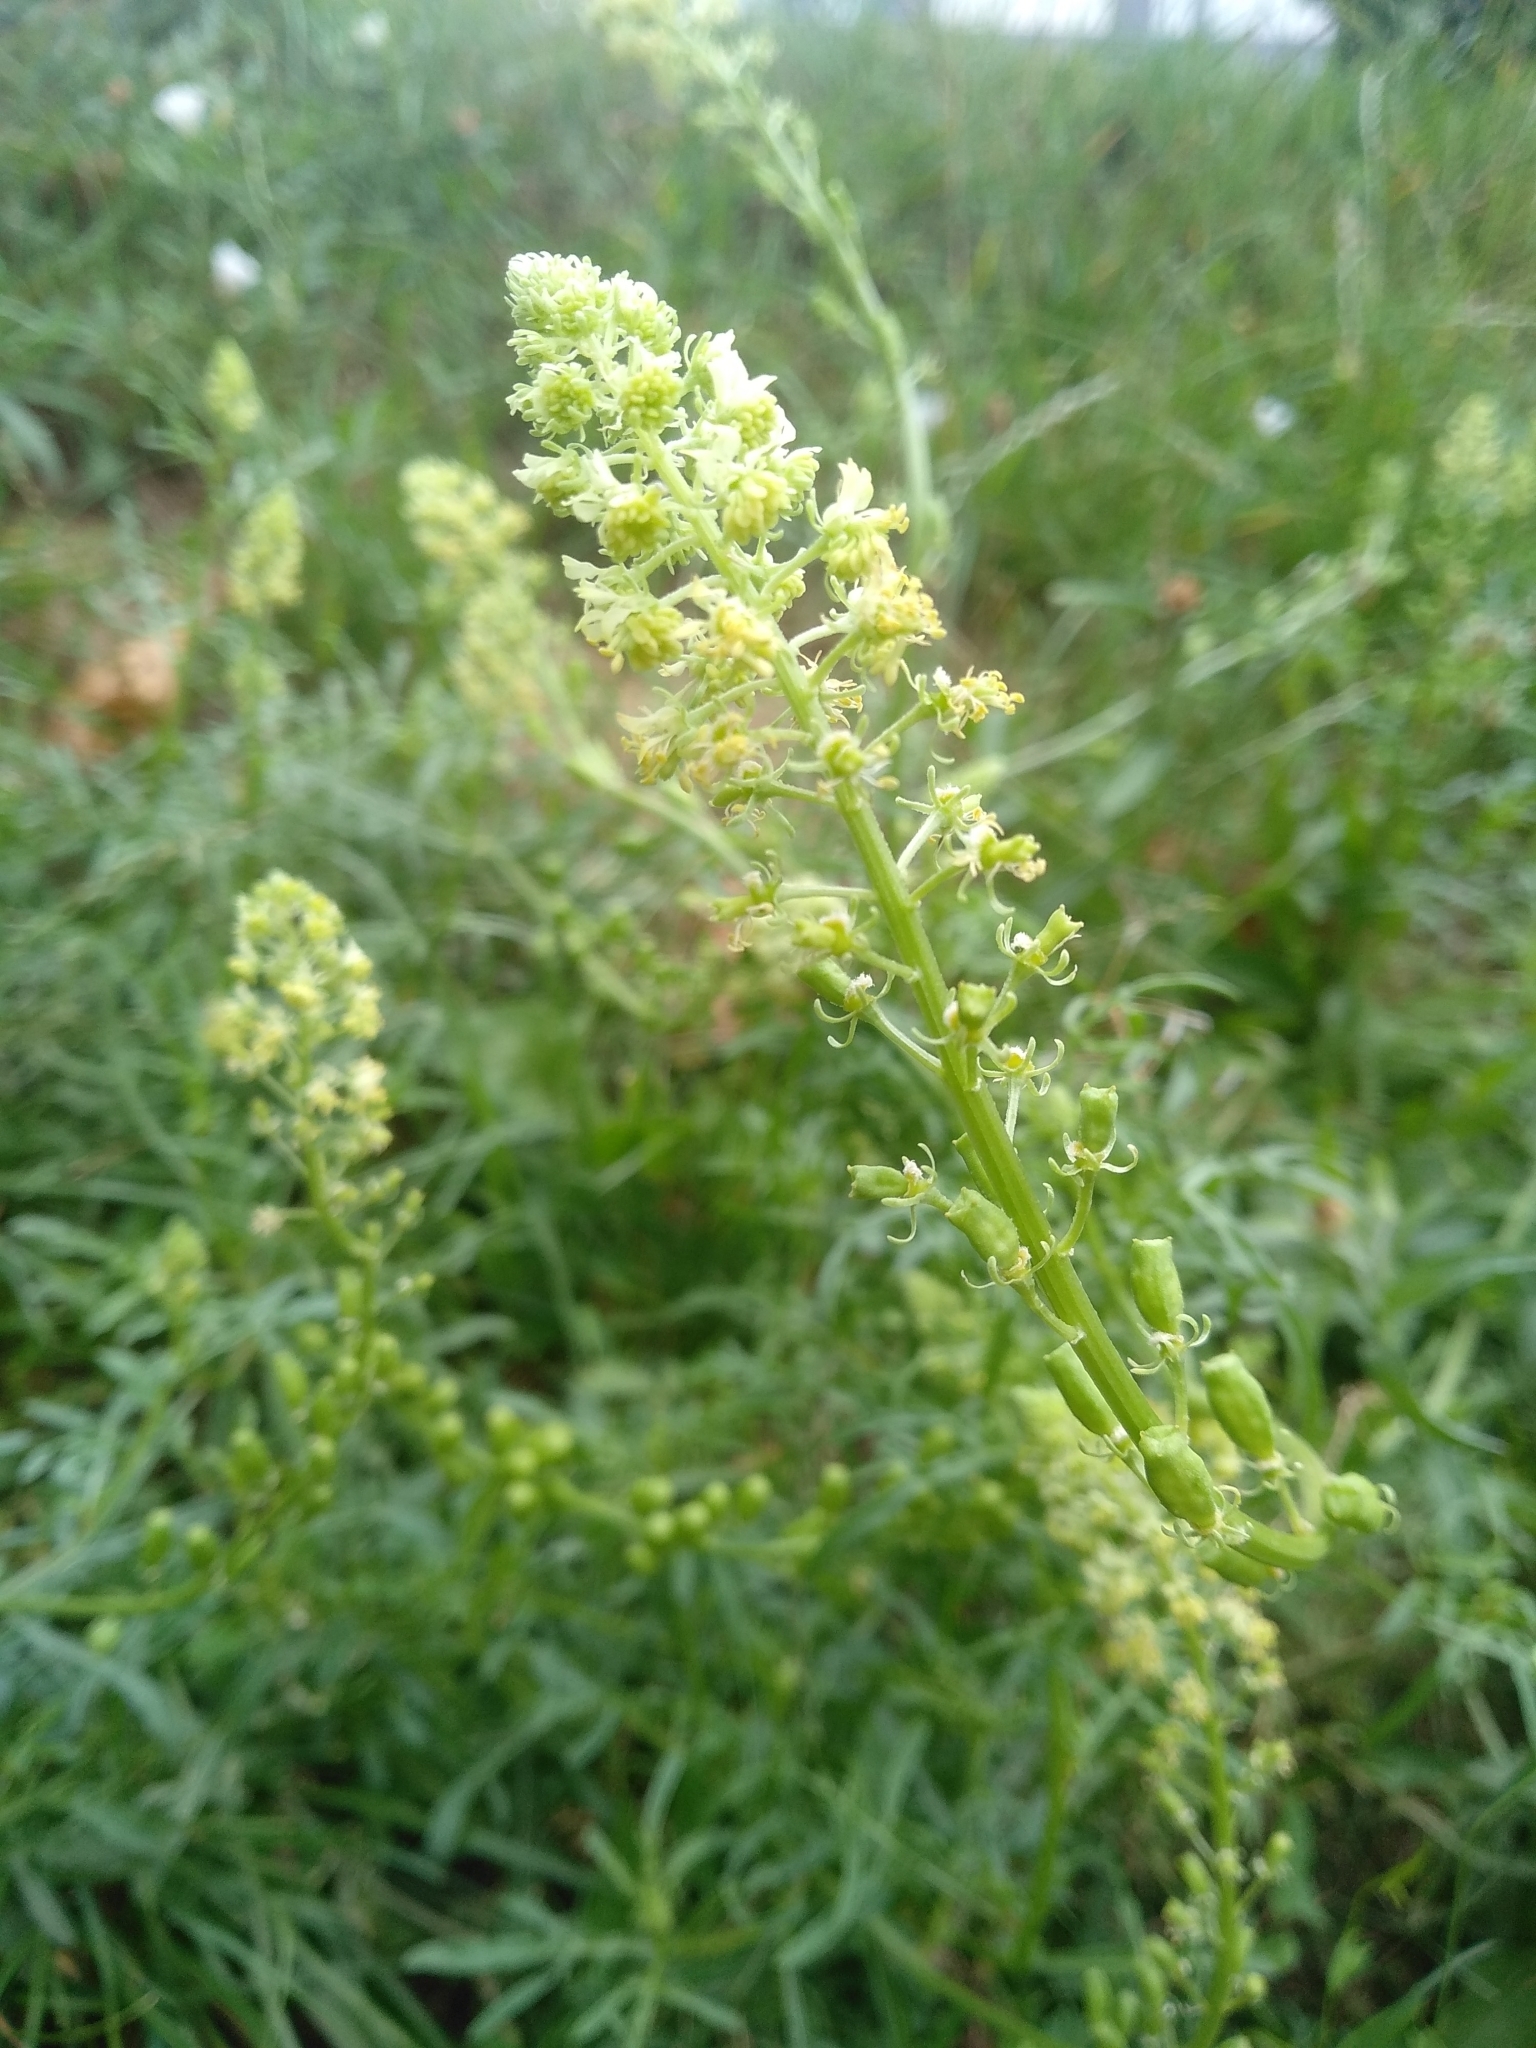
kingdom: Plantae
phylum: Tracheophyta
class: Magnoliopsida
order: Brassicales
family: Resedaceae
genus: Reseda
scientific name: Reseda lutea
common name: Wild mignonette
